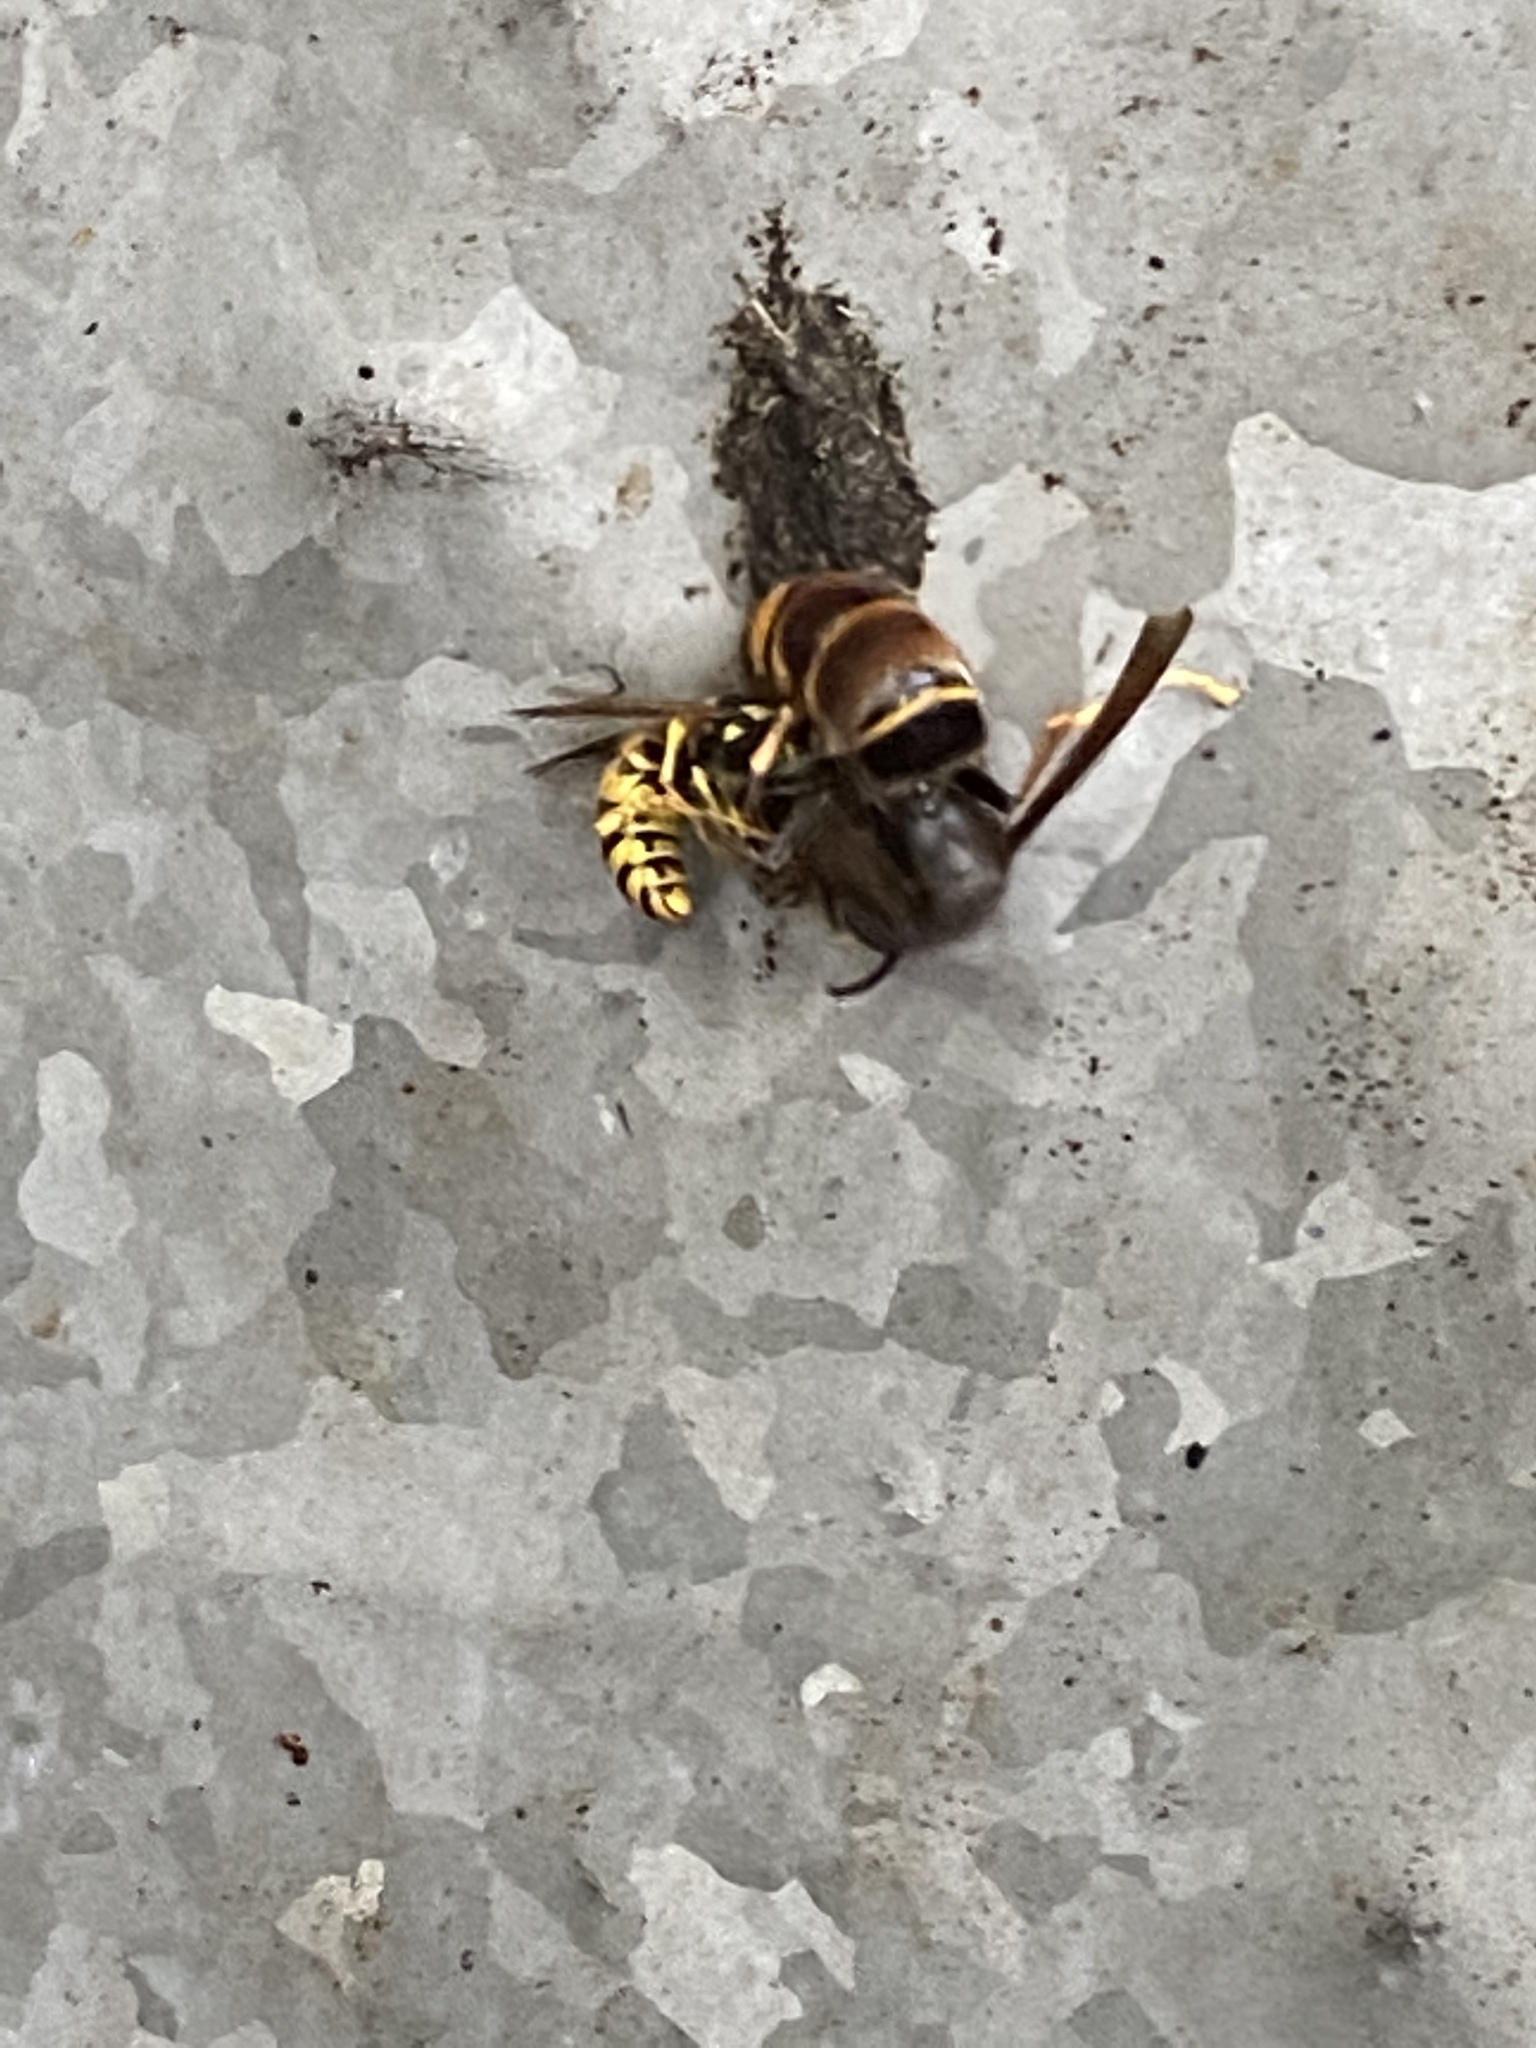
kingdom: Animalia
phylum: Arthropoda
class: Insecta
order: Hymenoptera
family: Vespidae
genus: Vespa
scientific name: Vespa velutina
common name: Asian hornet
